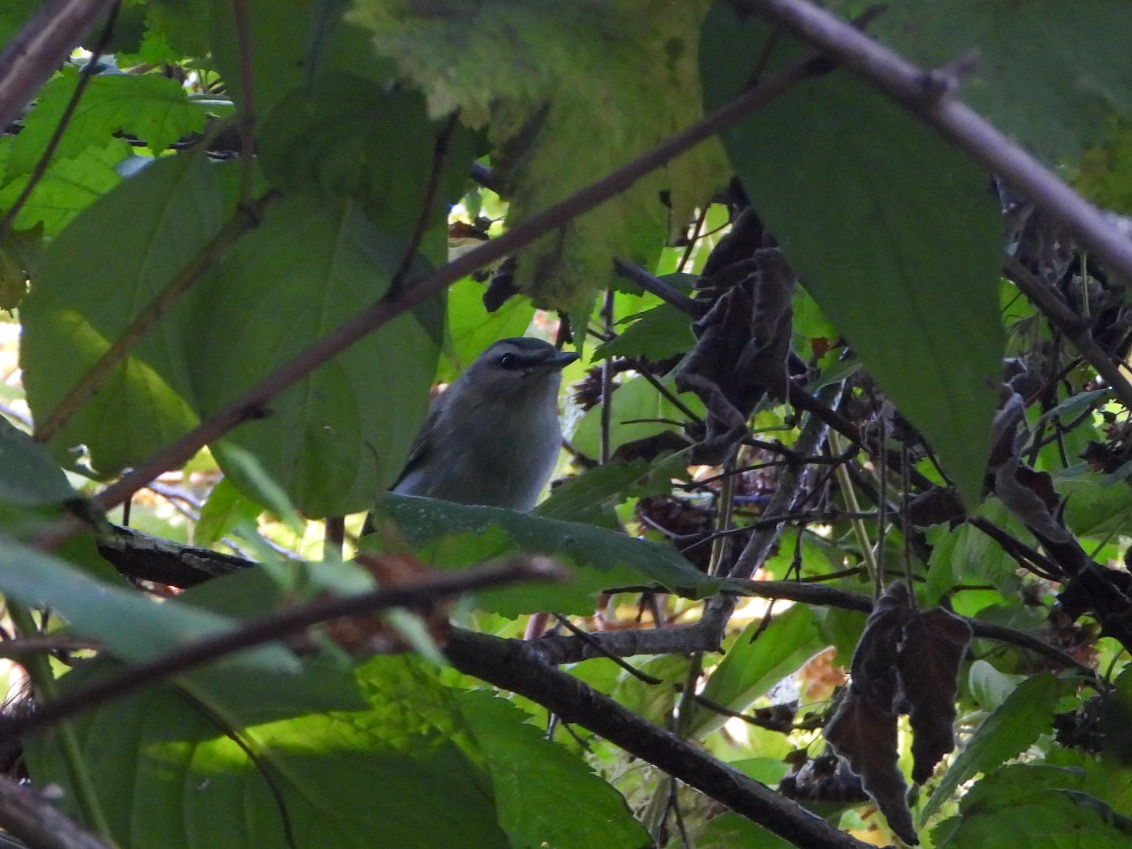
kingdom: Animalia
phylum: Chordata
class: Aves
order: Passeriformes
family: Vireonidae
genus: Vireo
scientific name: Vireo olivaceus
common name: Red-eyed vireo
